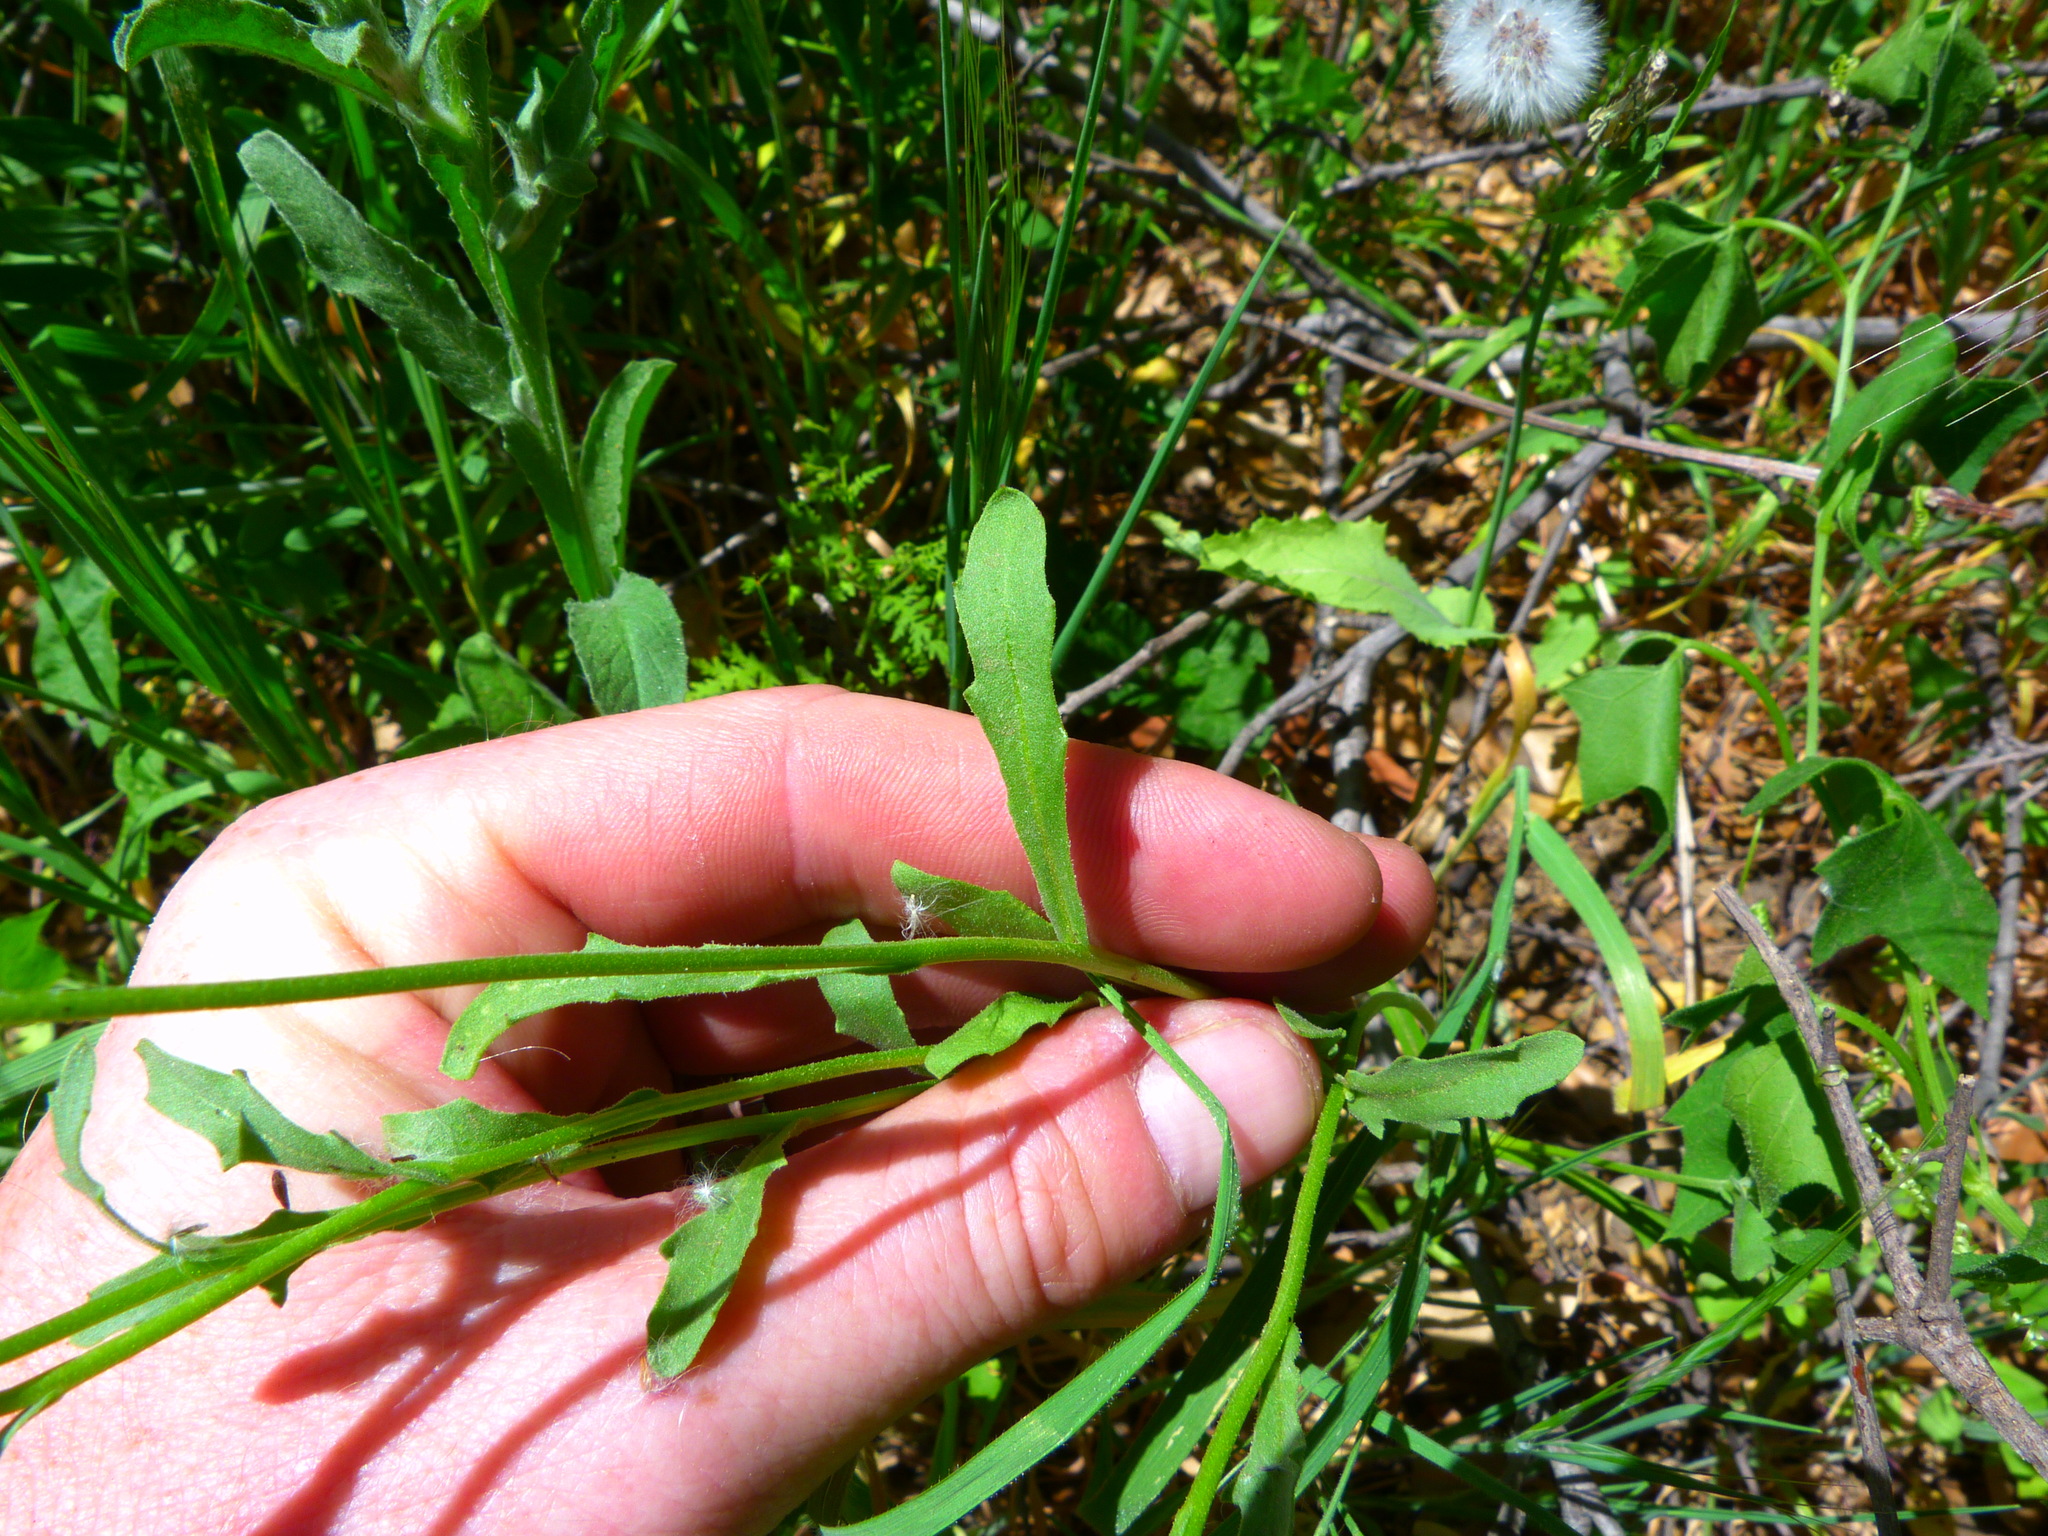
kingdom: Plantae
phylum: Tracheophyta
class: Magnoliopsida
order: Asterales
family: Asteraceae
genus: Dimorphotheca
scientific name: Dimorphotheca sinuata
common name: Glandular cape marigold
